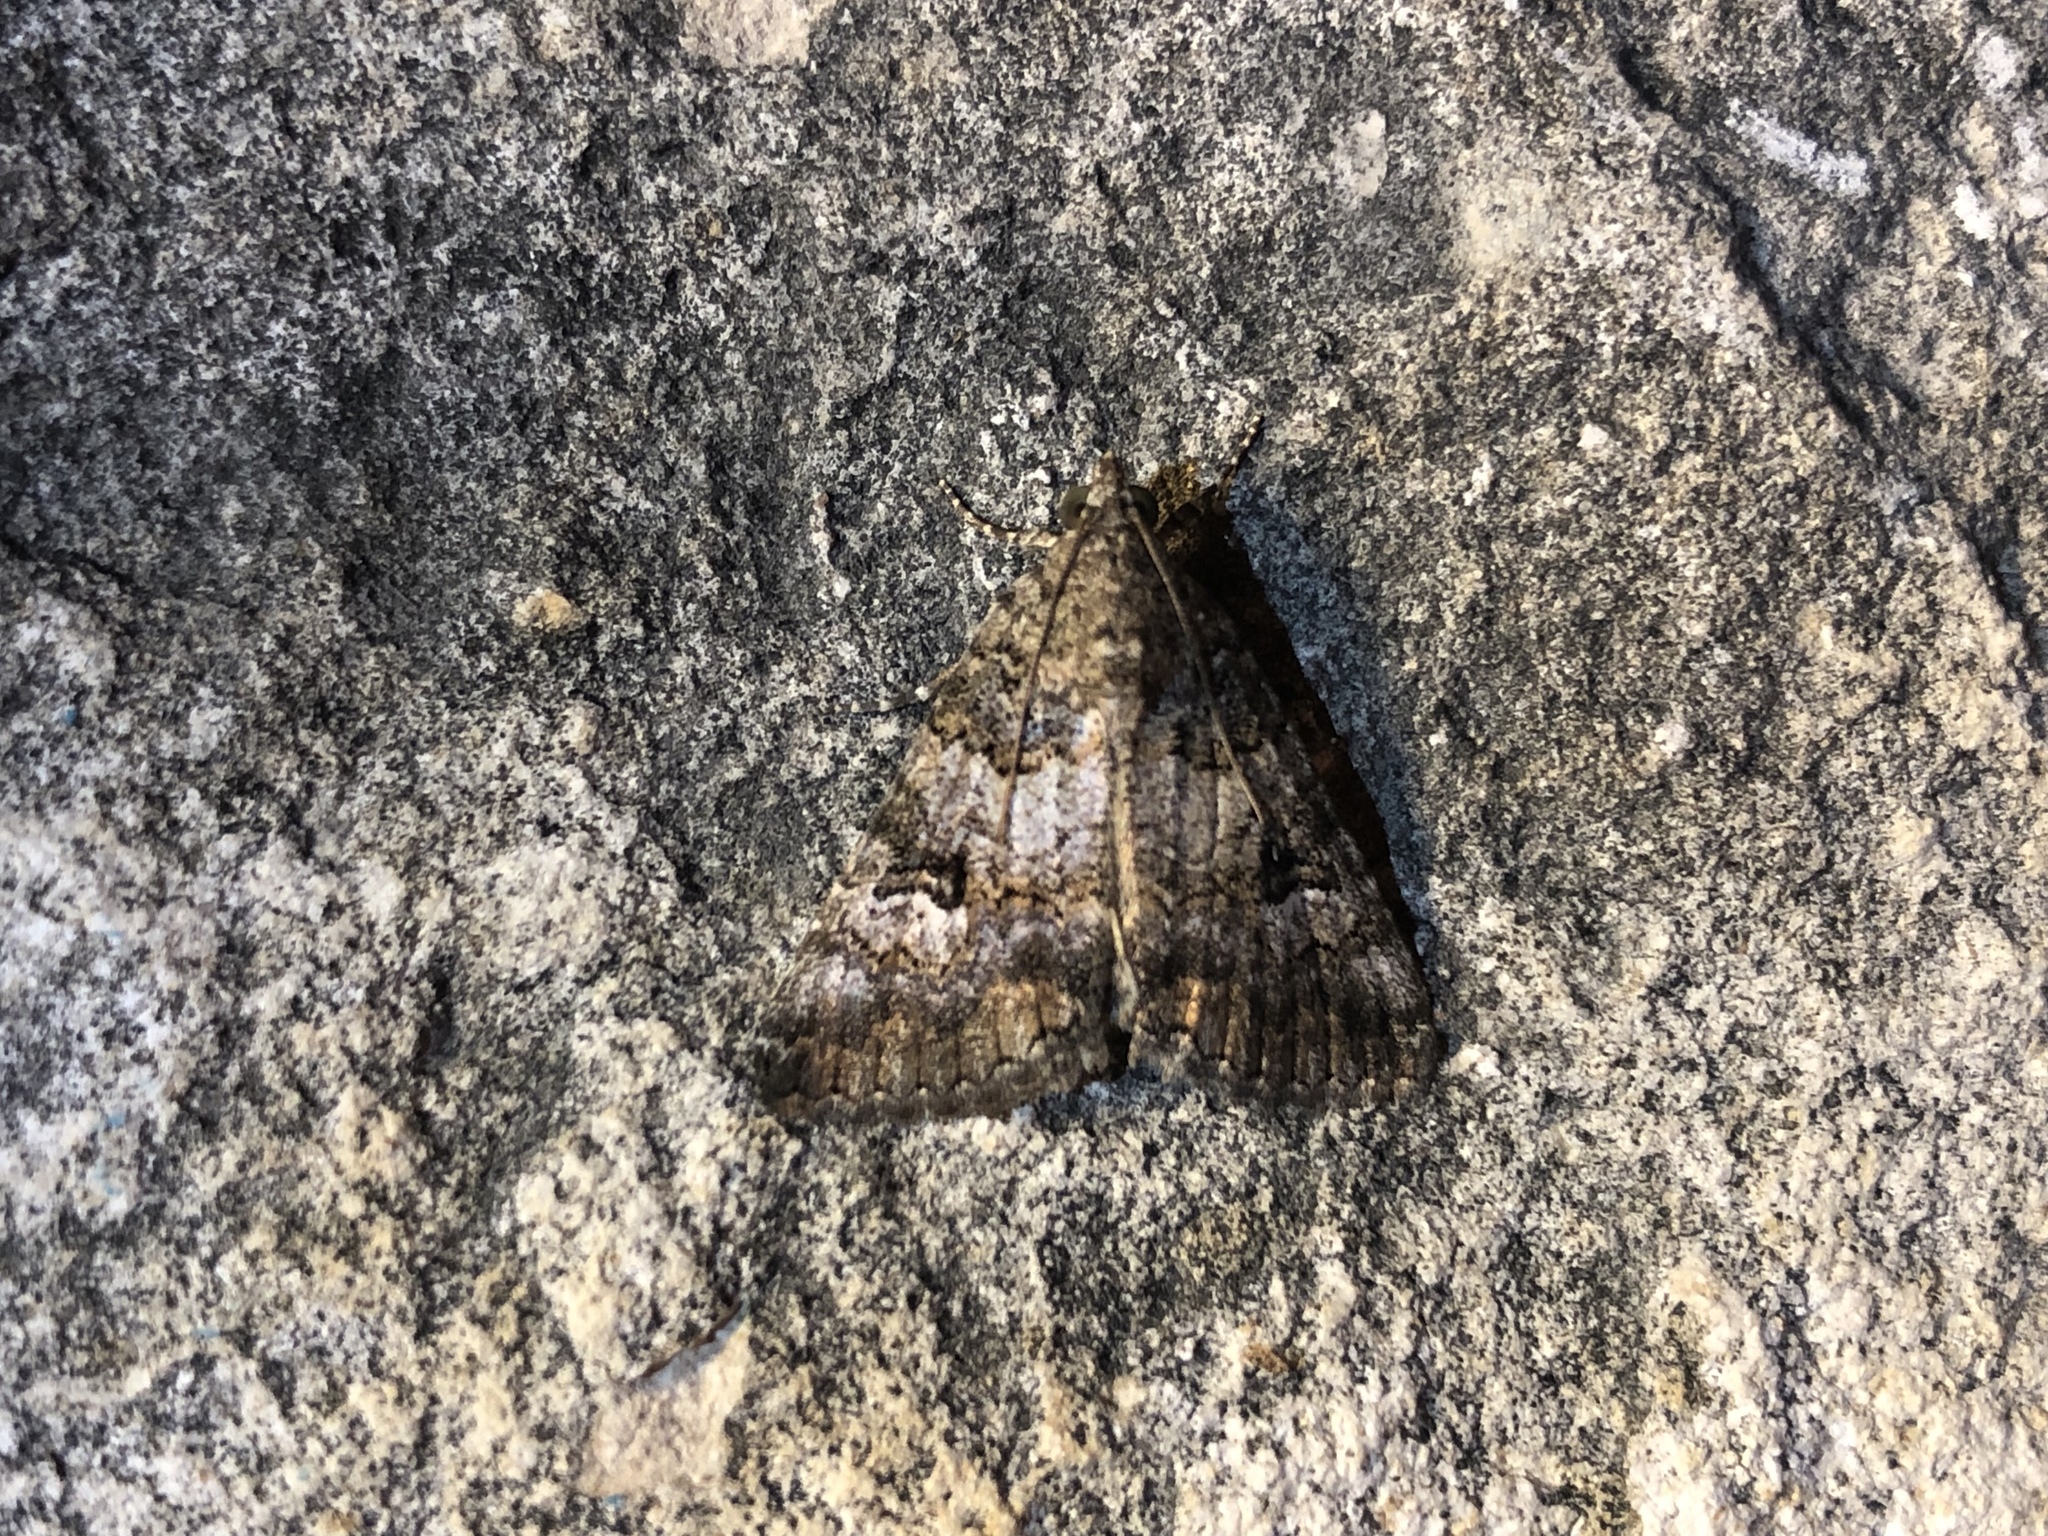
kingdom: Animalia
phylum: Arthropoda
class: Insecta
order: Lepidoptera
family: Erebidae
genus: Eubolina
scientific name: Eubolina impartialis
